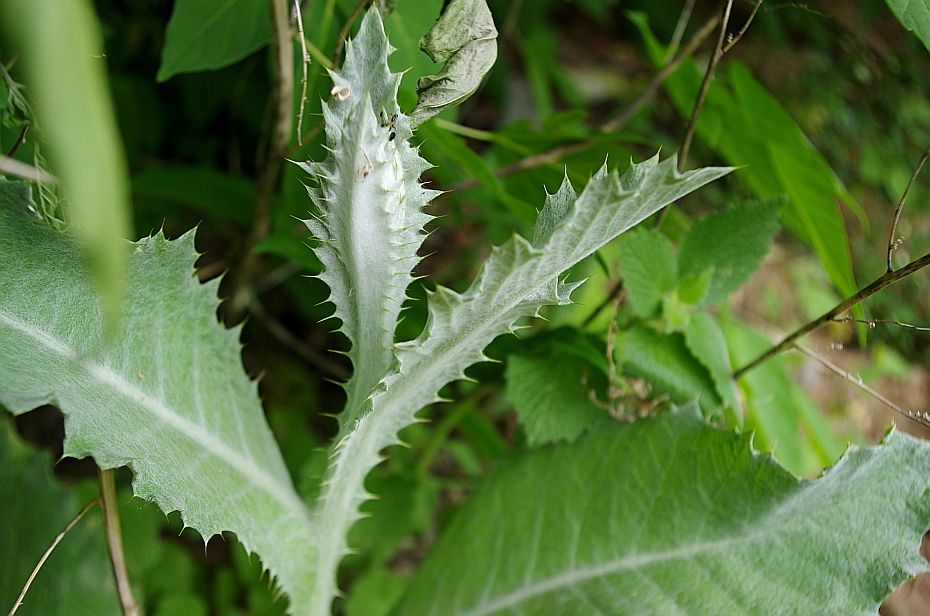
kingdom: Plantae
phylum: Tracheophyta
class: Magnoliopsida
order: Asterales
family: Asteraceae
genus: Onopordum
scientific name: Onopordum acanthium
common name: Scotch thistle
